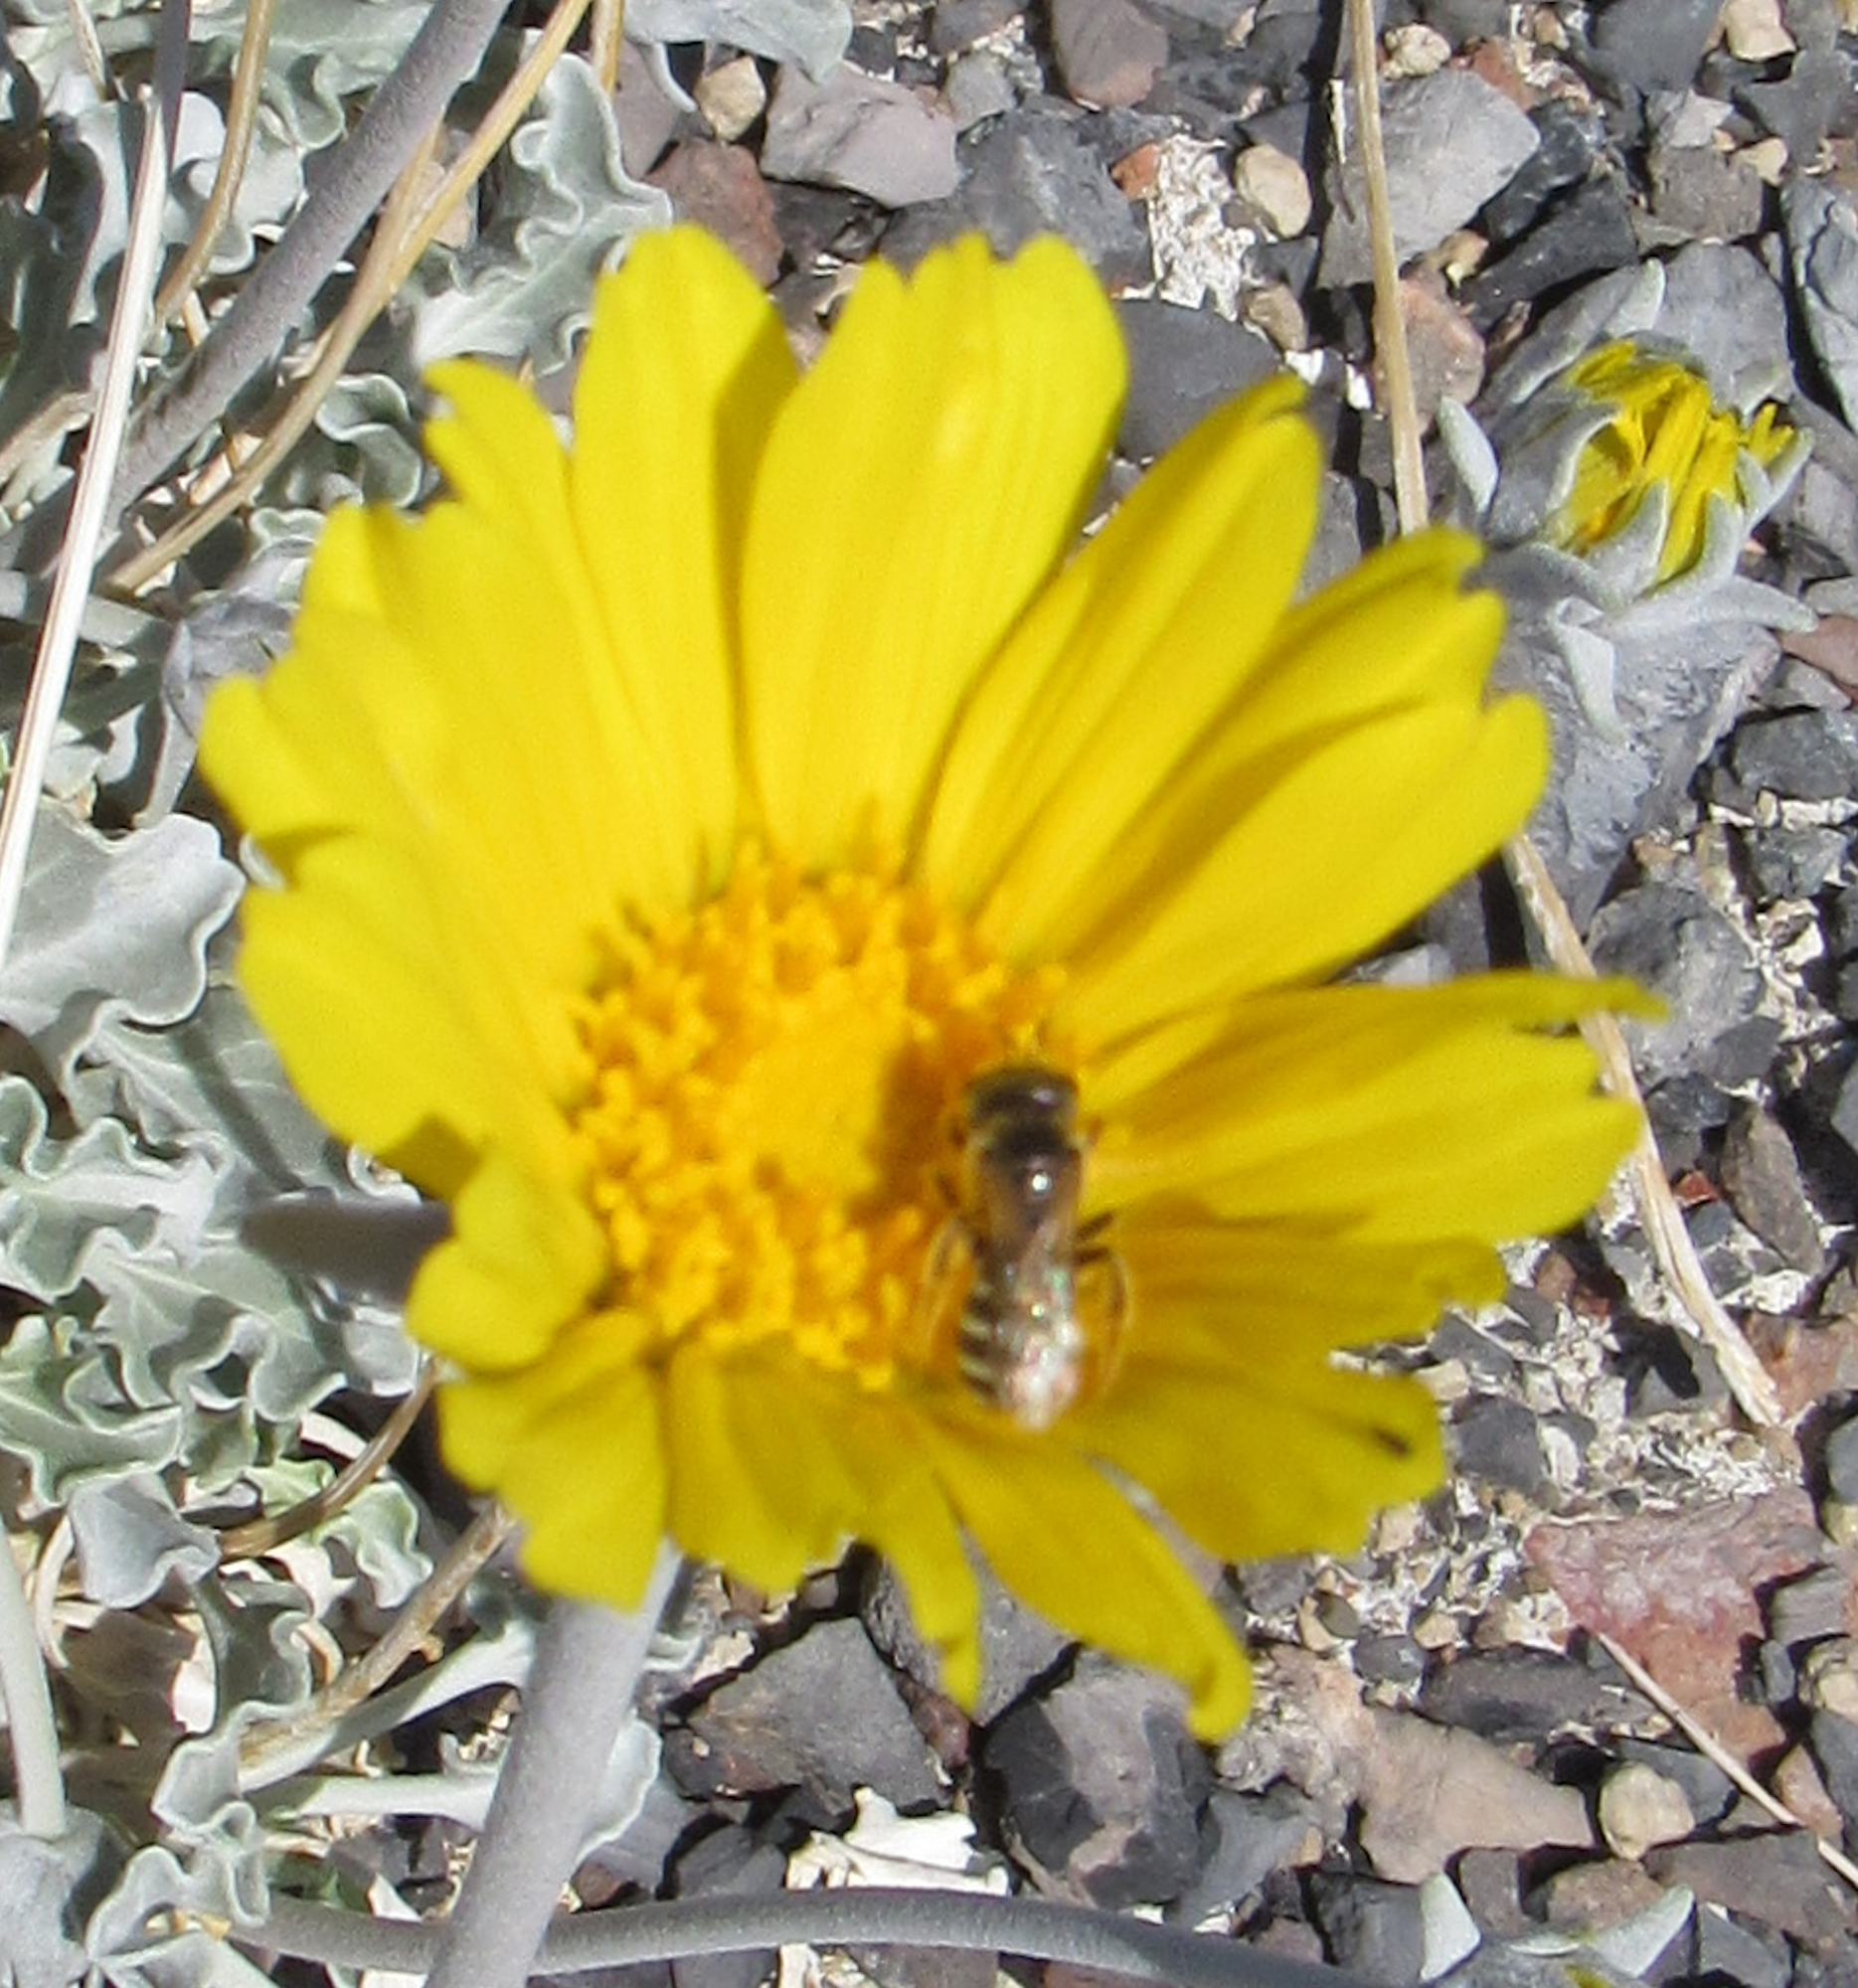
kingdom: Animalia
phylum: Arthropoda
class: Insecta
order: Hymenoptera
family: Halictidae
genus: Halictus
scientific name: Halictus ligatus
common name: Ligated furrow bee
